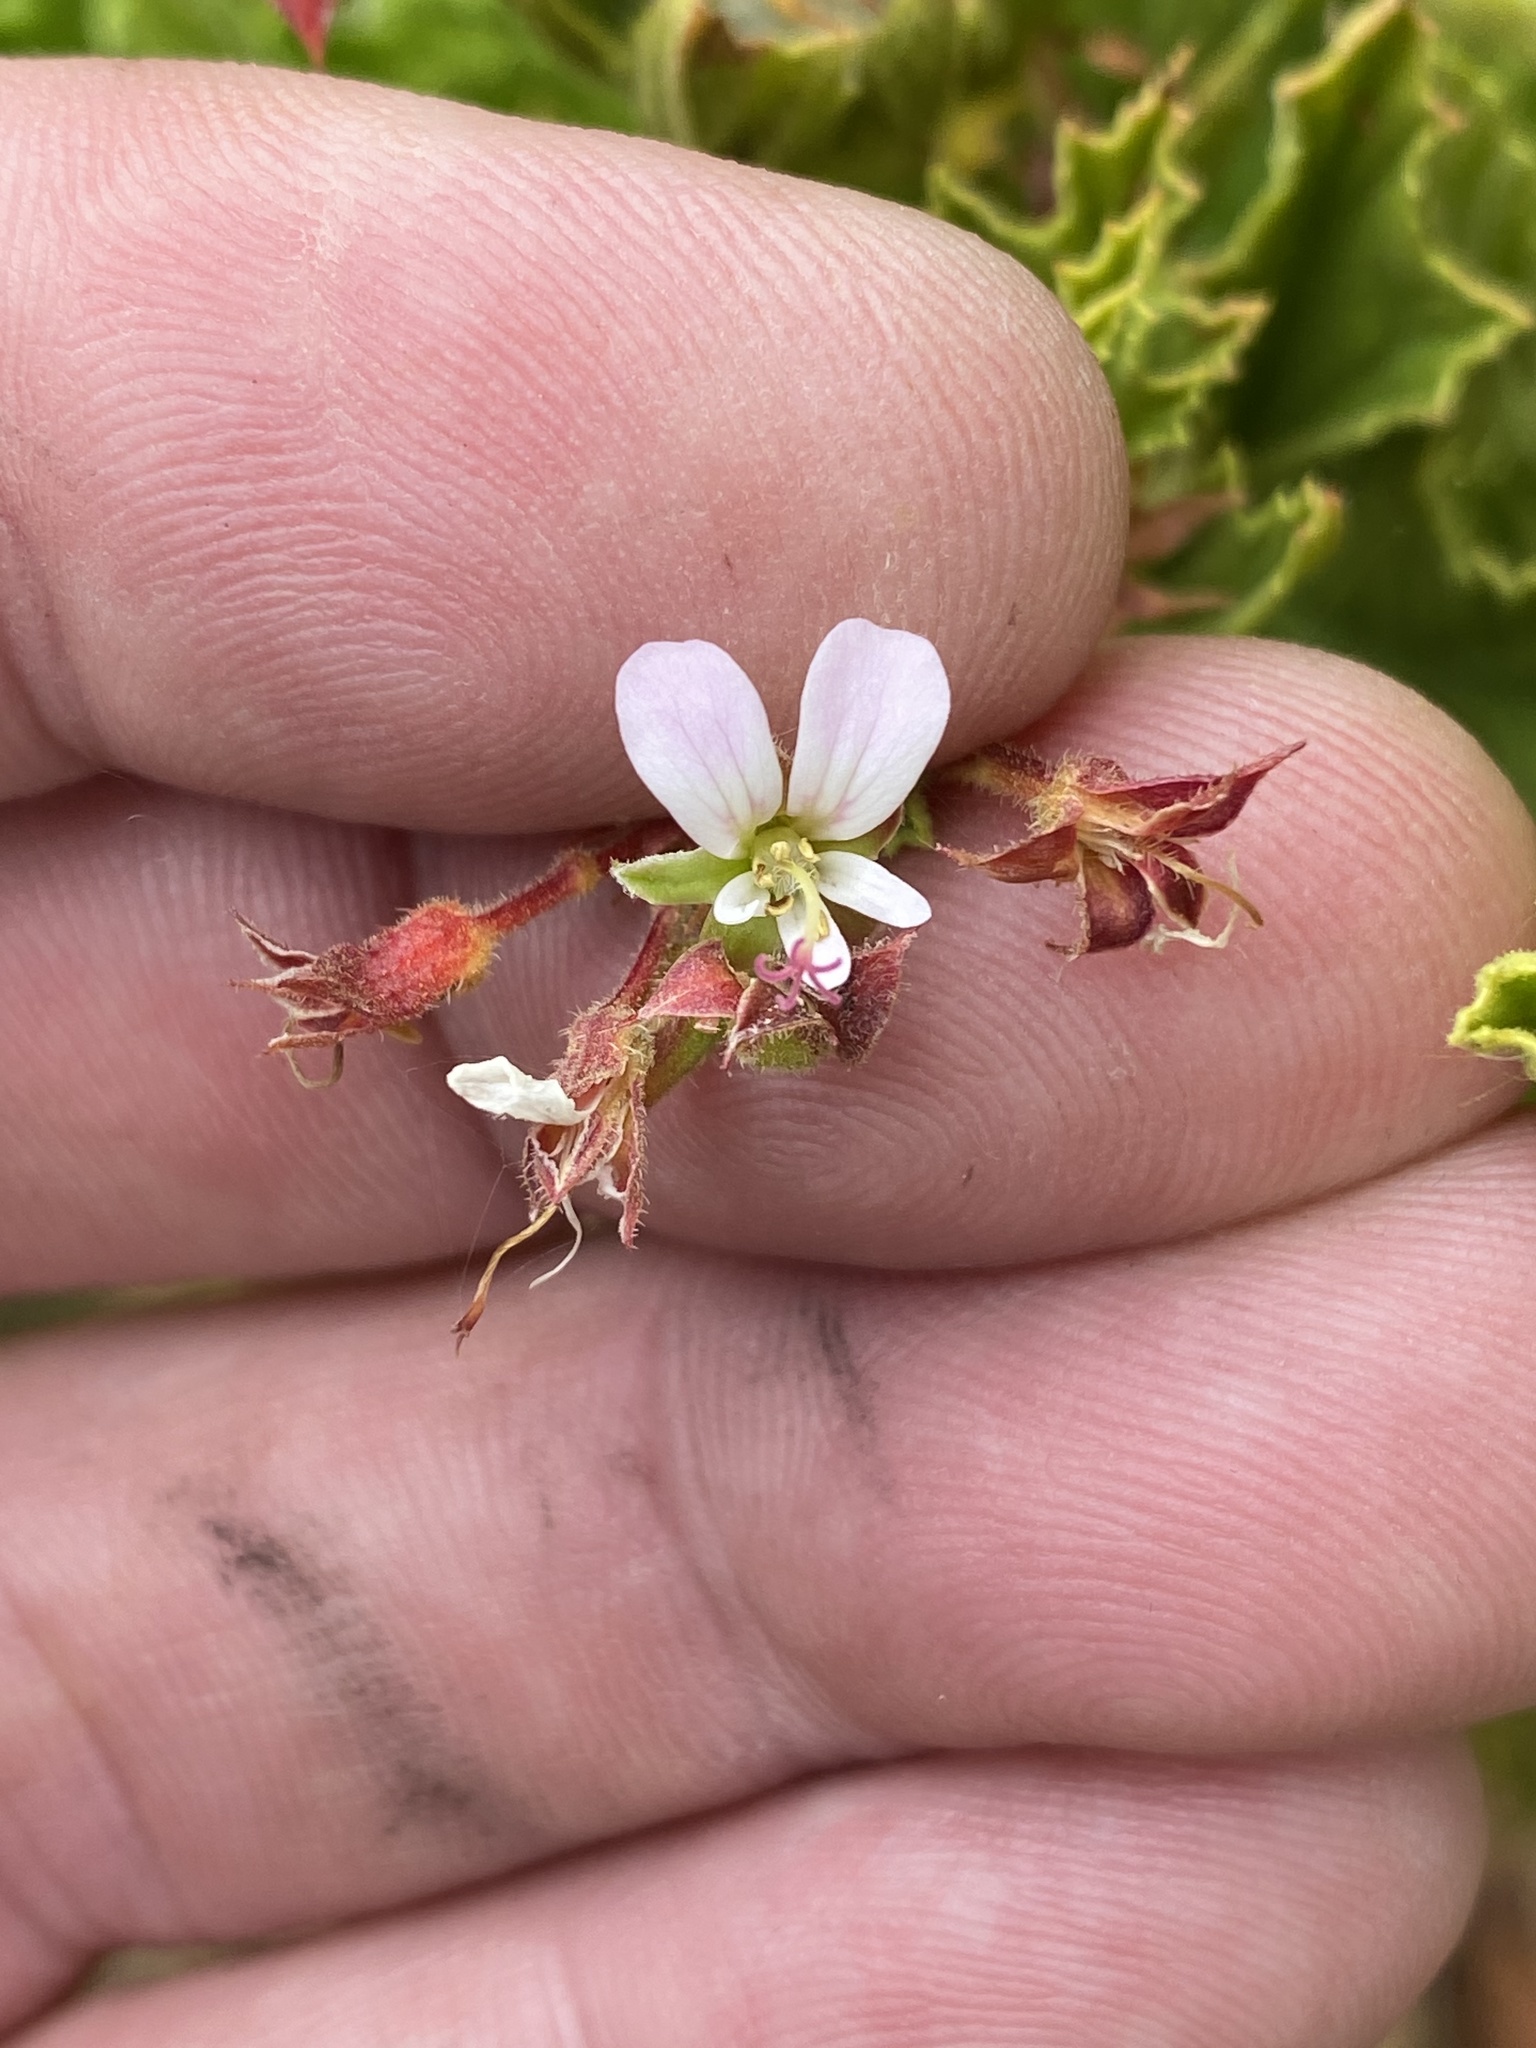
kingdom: Plantae
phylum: Tracheophyta
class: Magnoliopsida
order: Geraniales
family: Geraniaceae
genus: Pelargonium
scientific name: Pelargonium ribifolium
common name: Currant-leaf pelargonium
